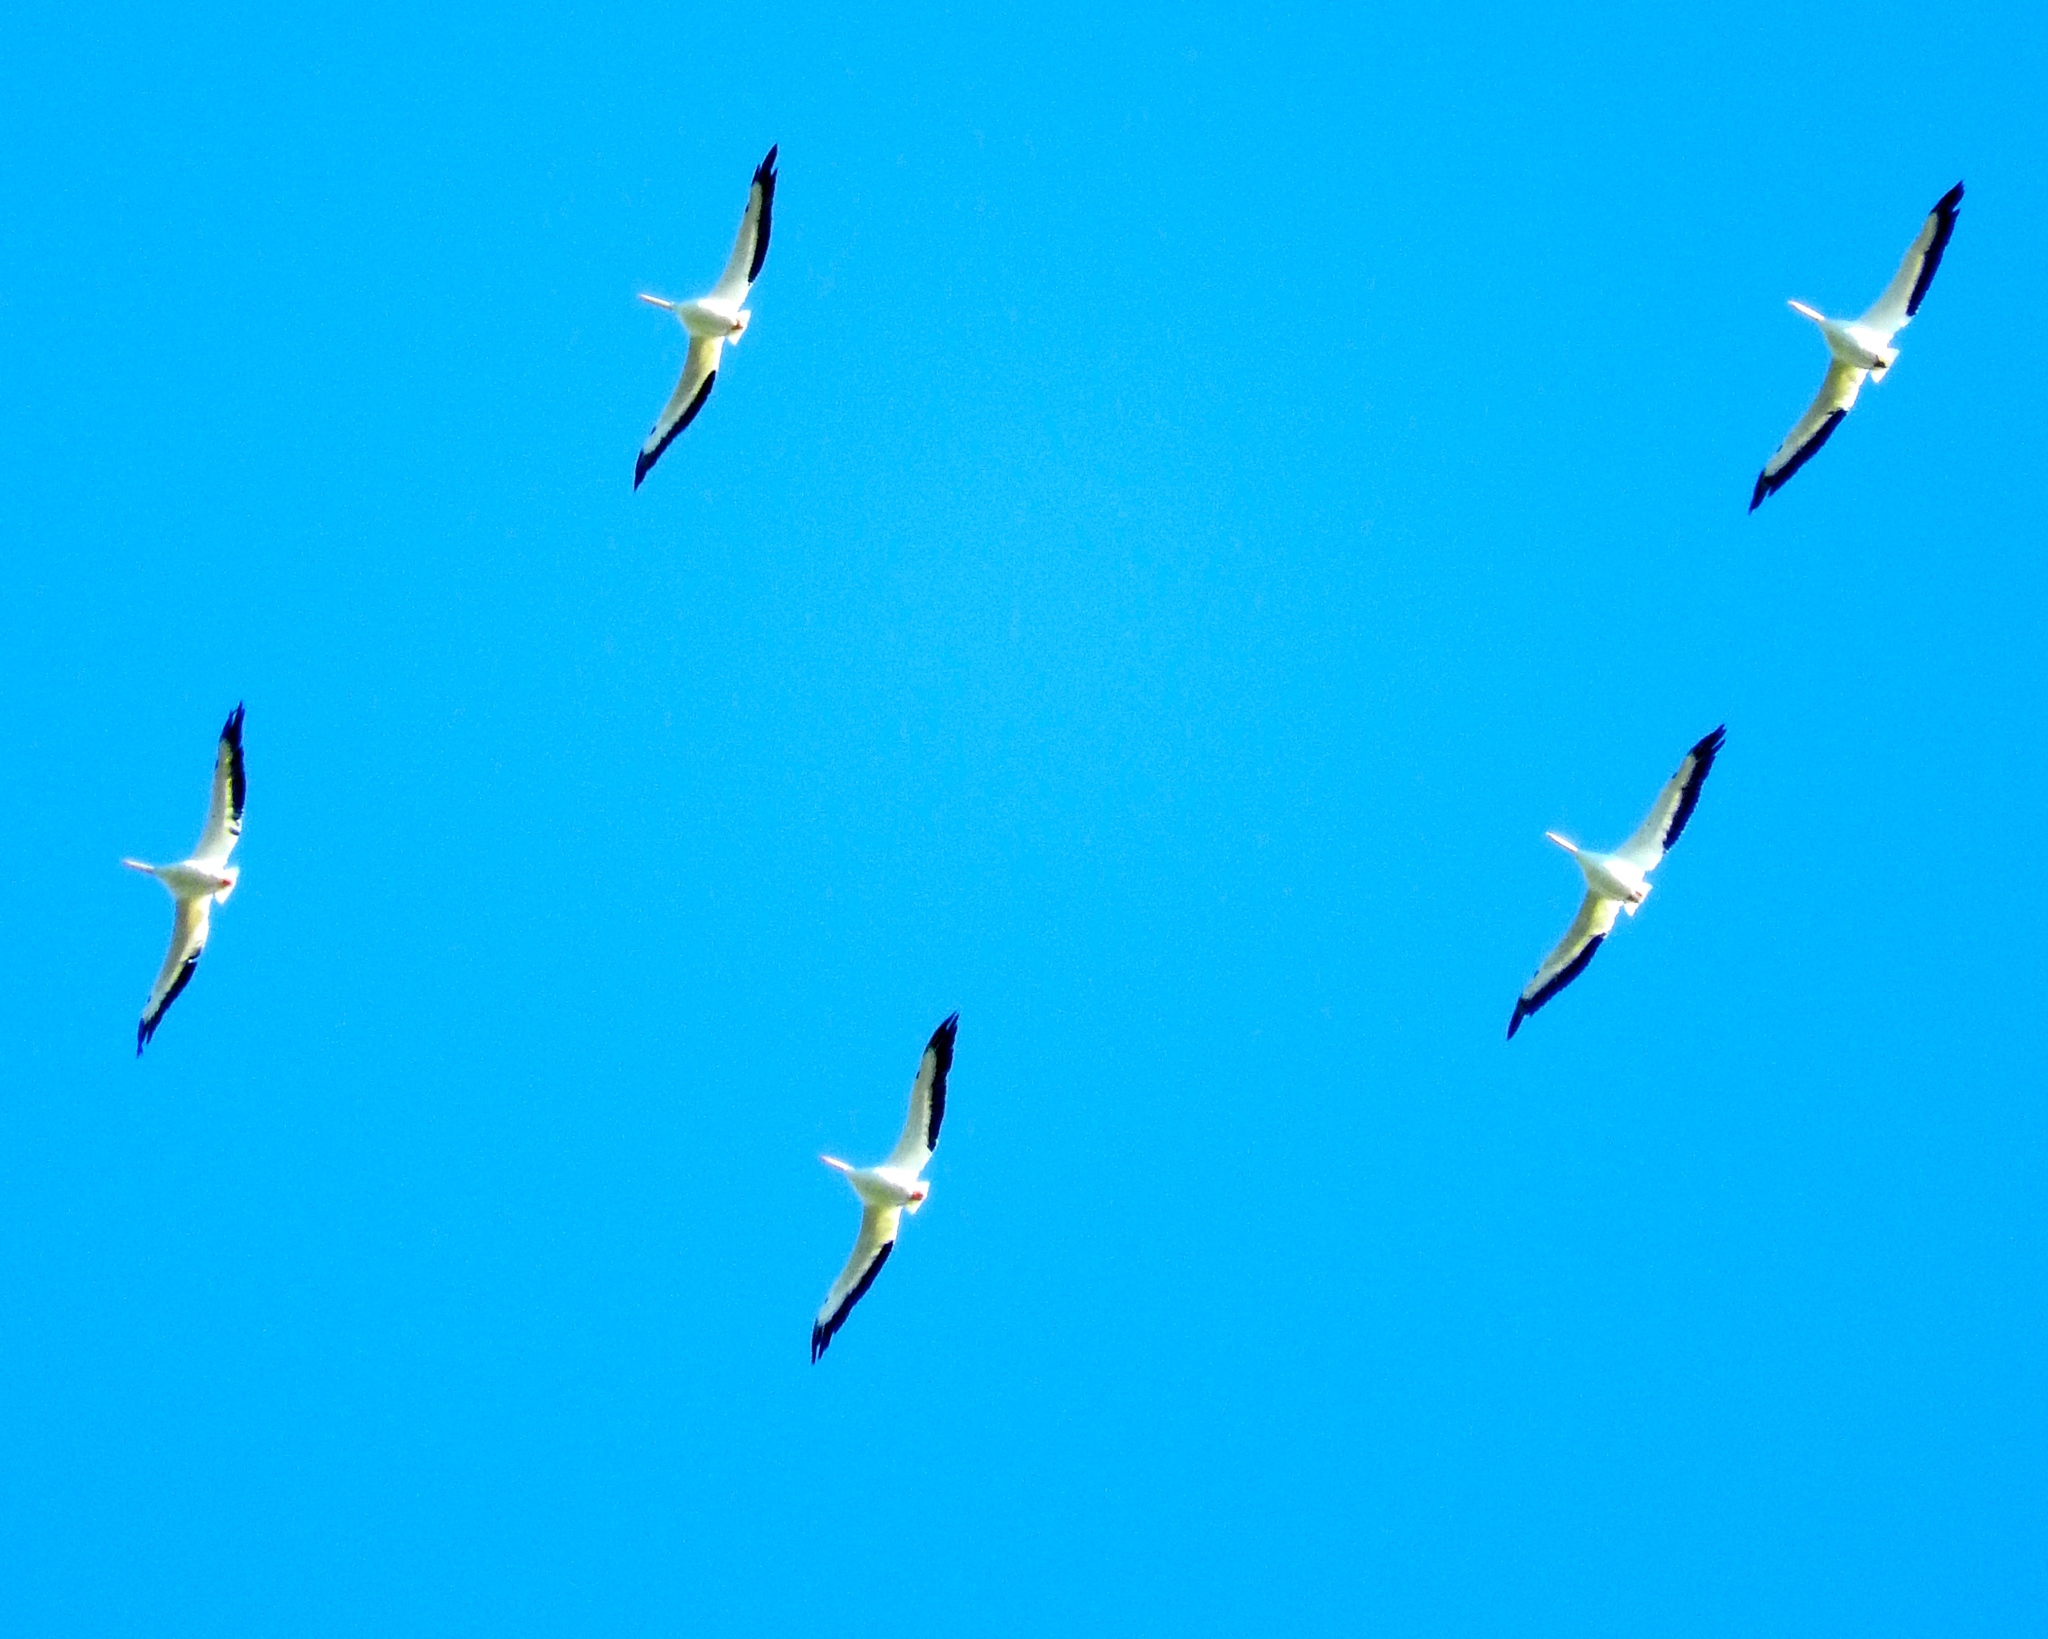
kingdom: Animalia
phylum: Chordata
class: Aves
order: Pelecaniformes
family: Pelecanidae
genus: Pelecanus
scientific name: Pelecanus erythrorhynchos
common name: American white pelican
